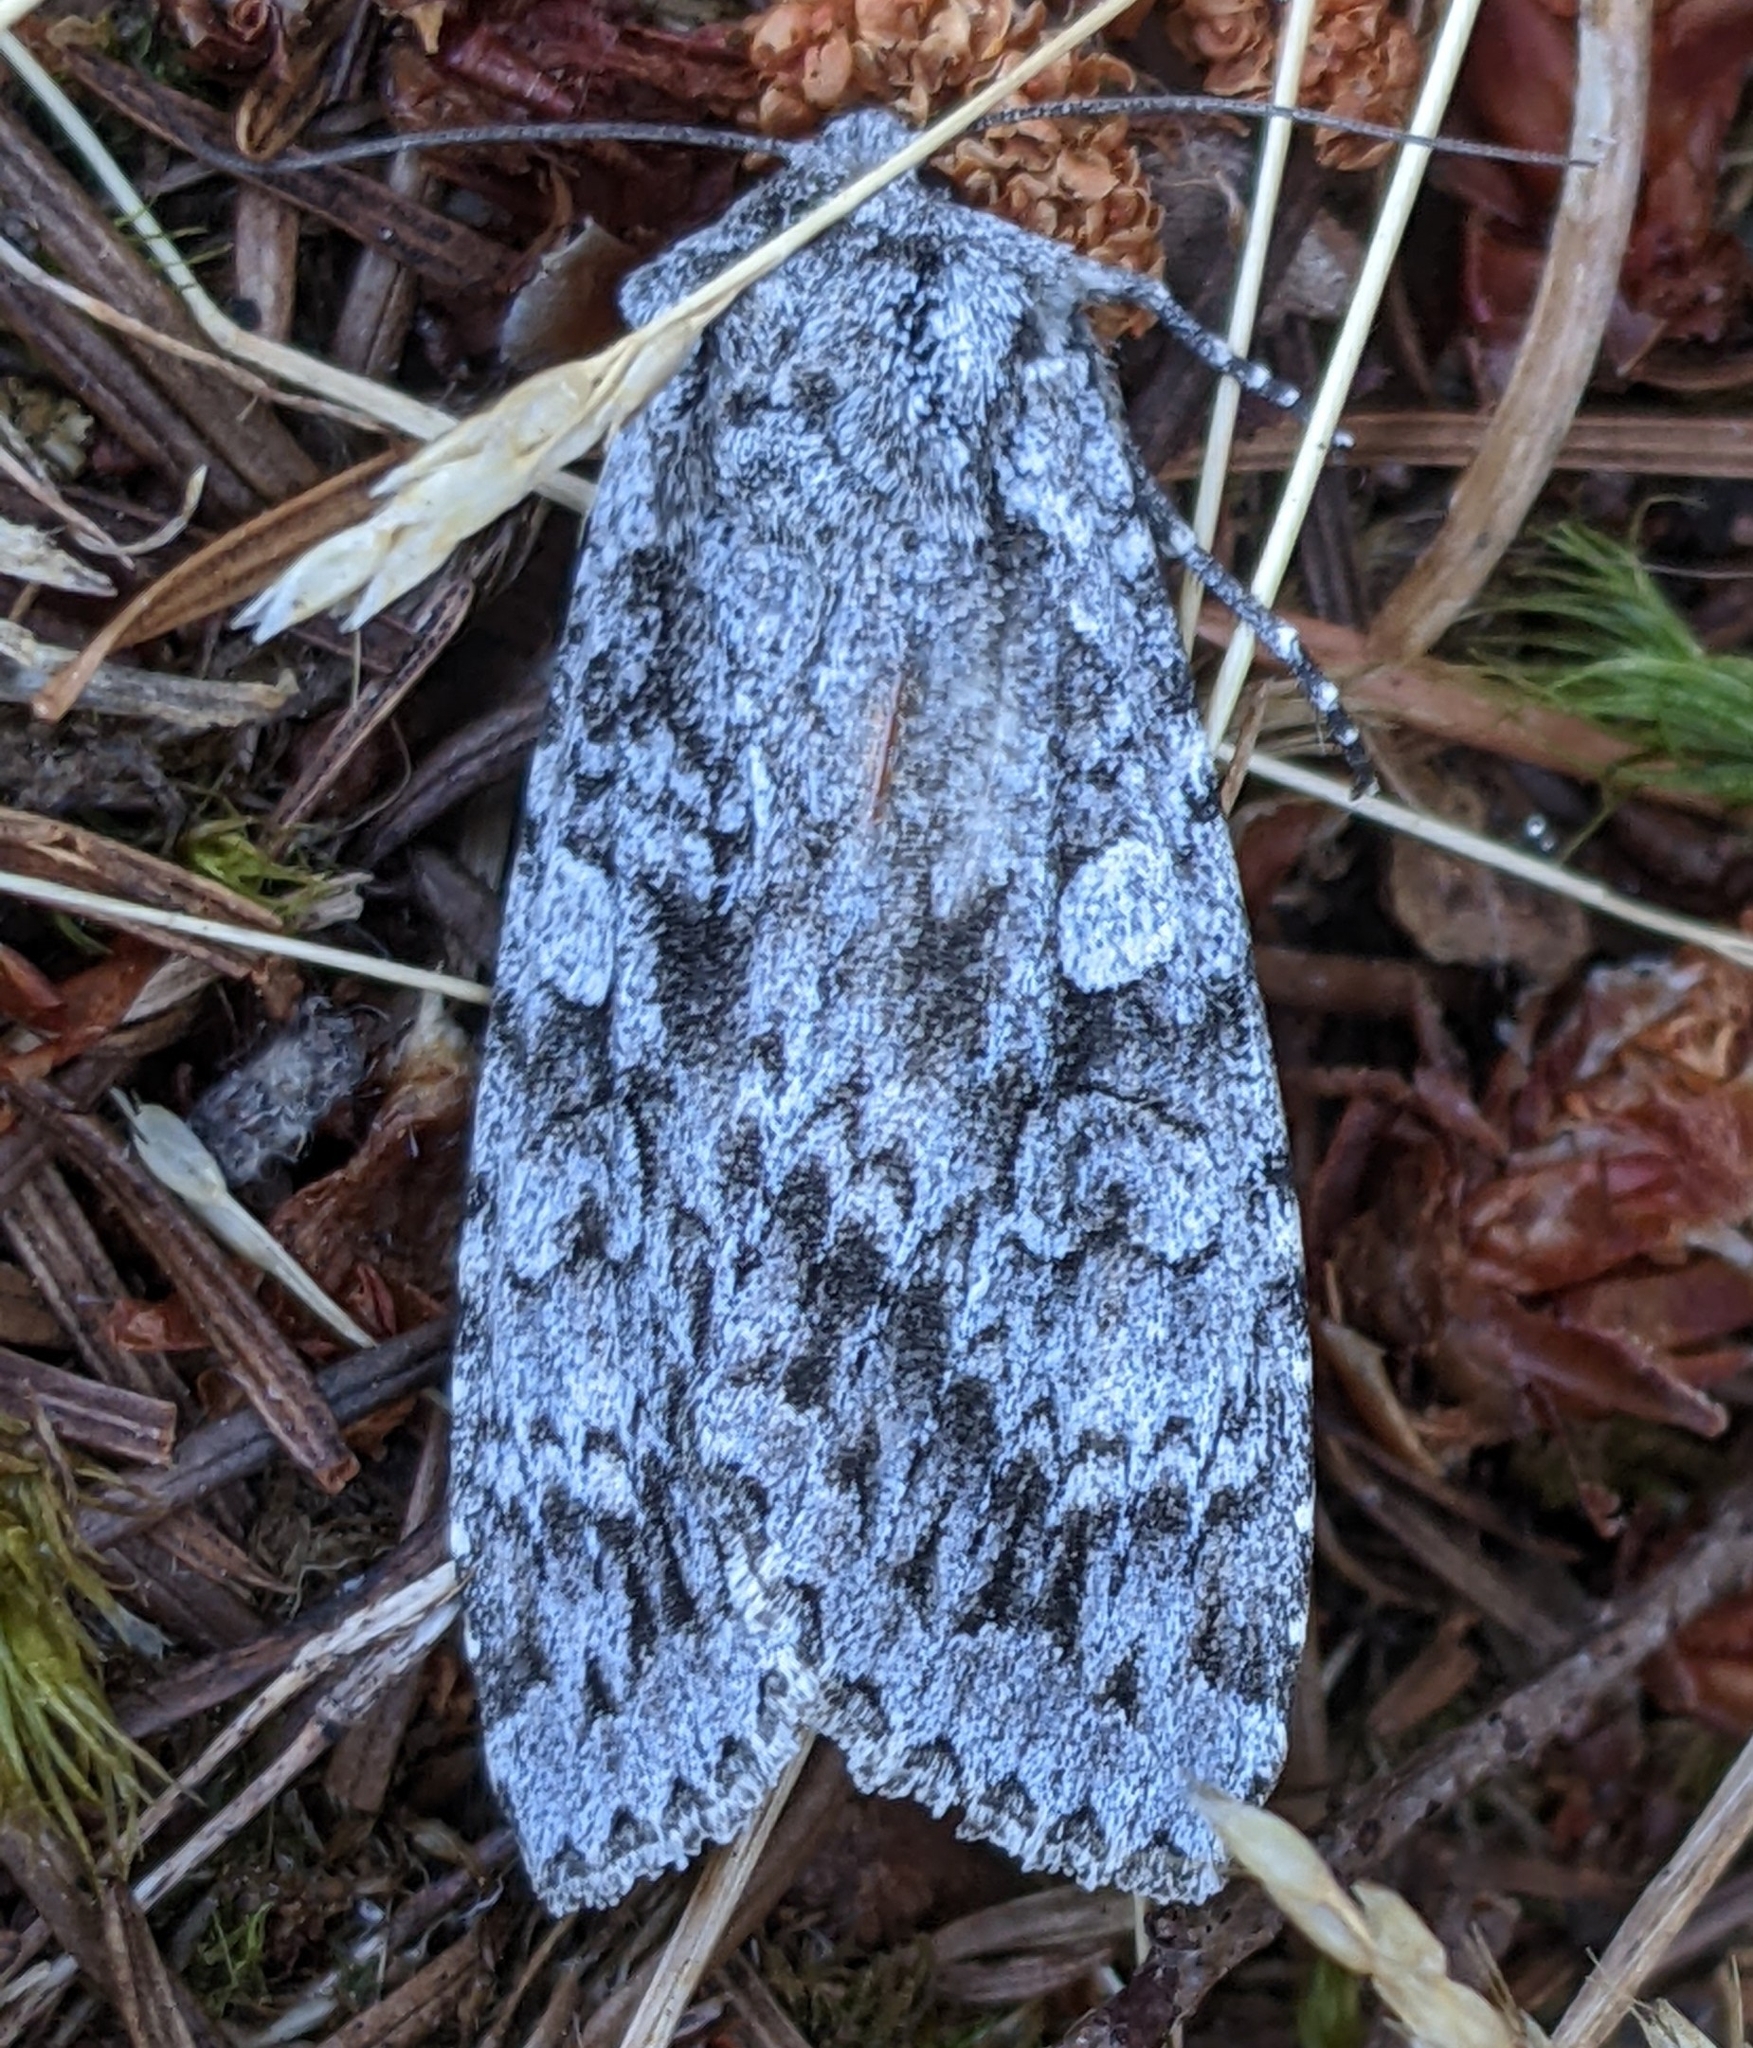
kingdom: Animalia
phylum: Arthropoda
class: Insecta
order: Lepidoptera
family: Noctuidae
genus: Eurois
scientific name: Eurois occulta
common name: Great brocade
